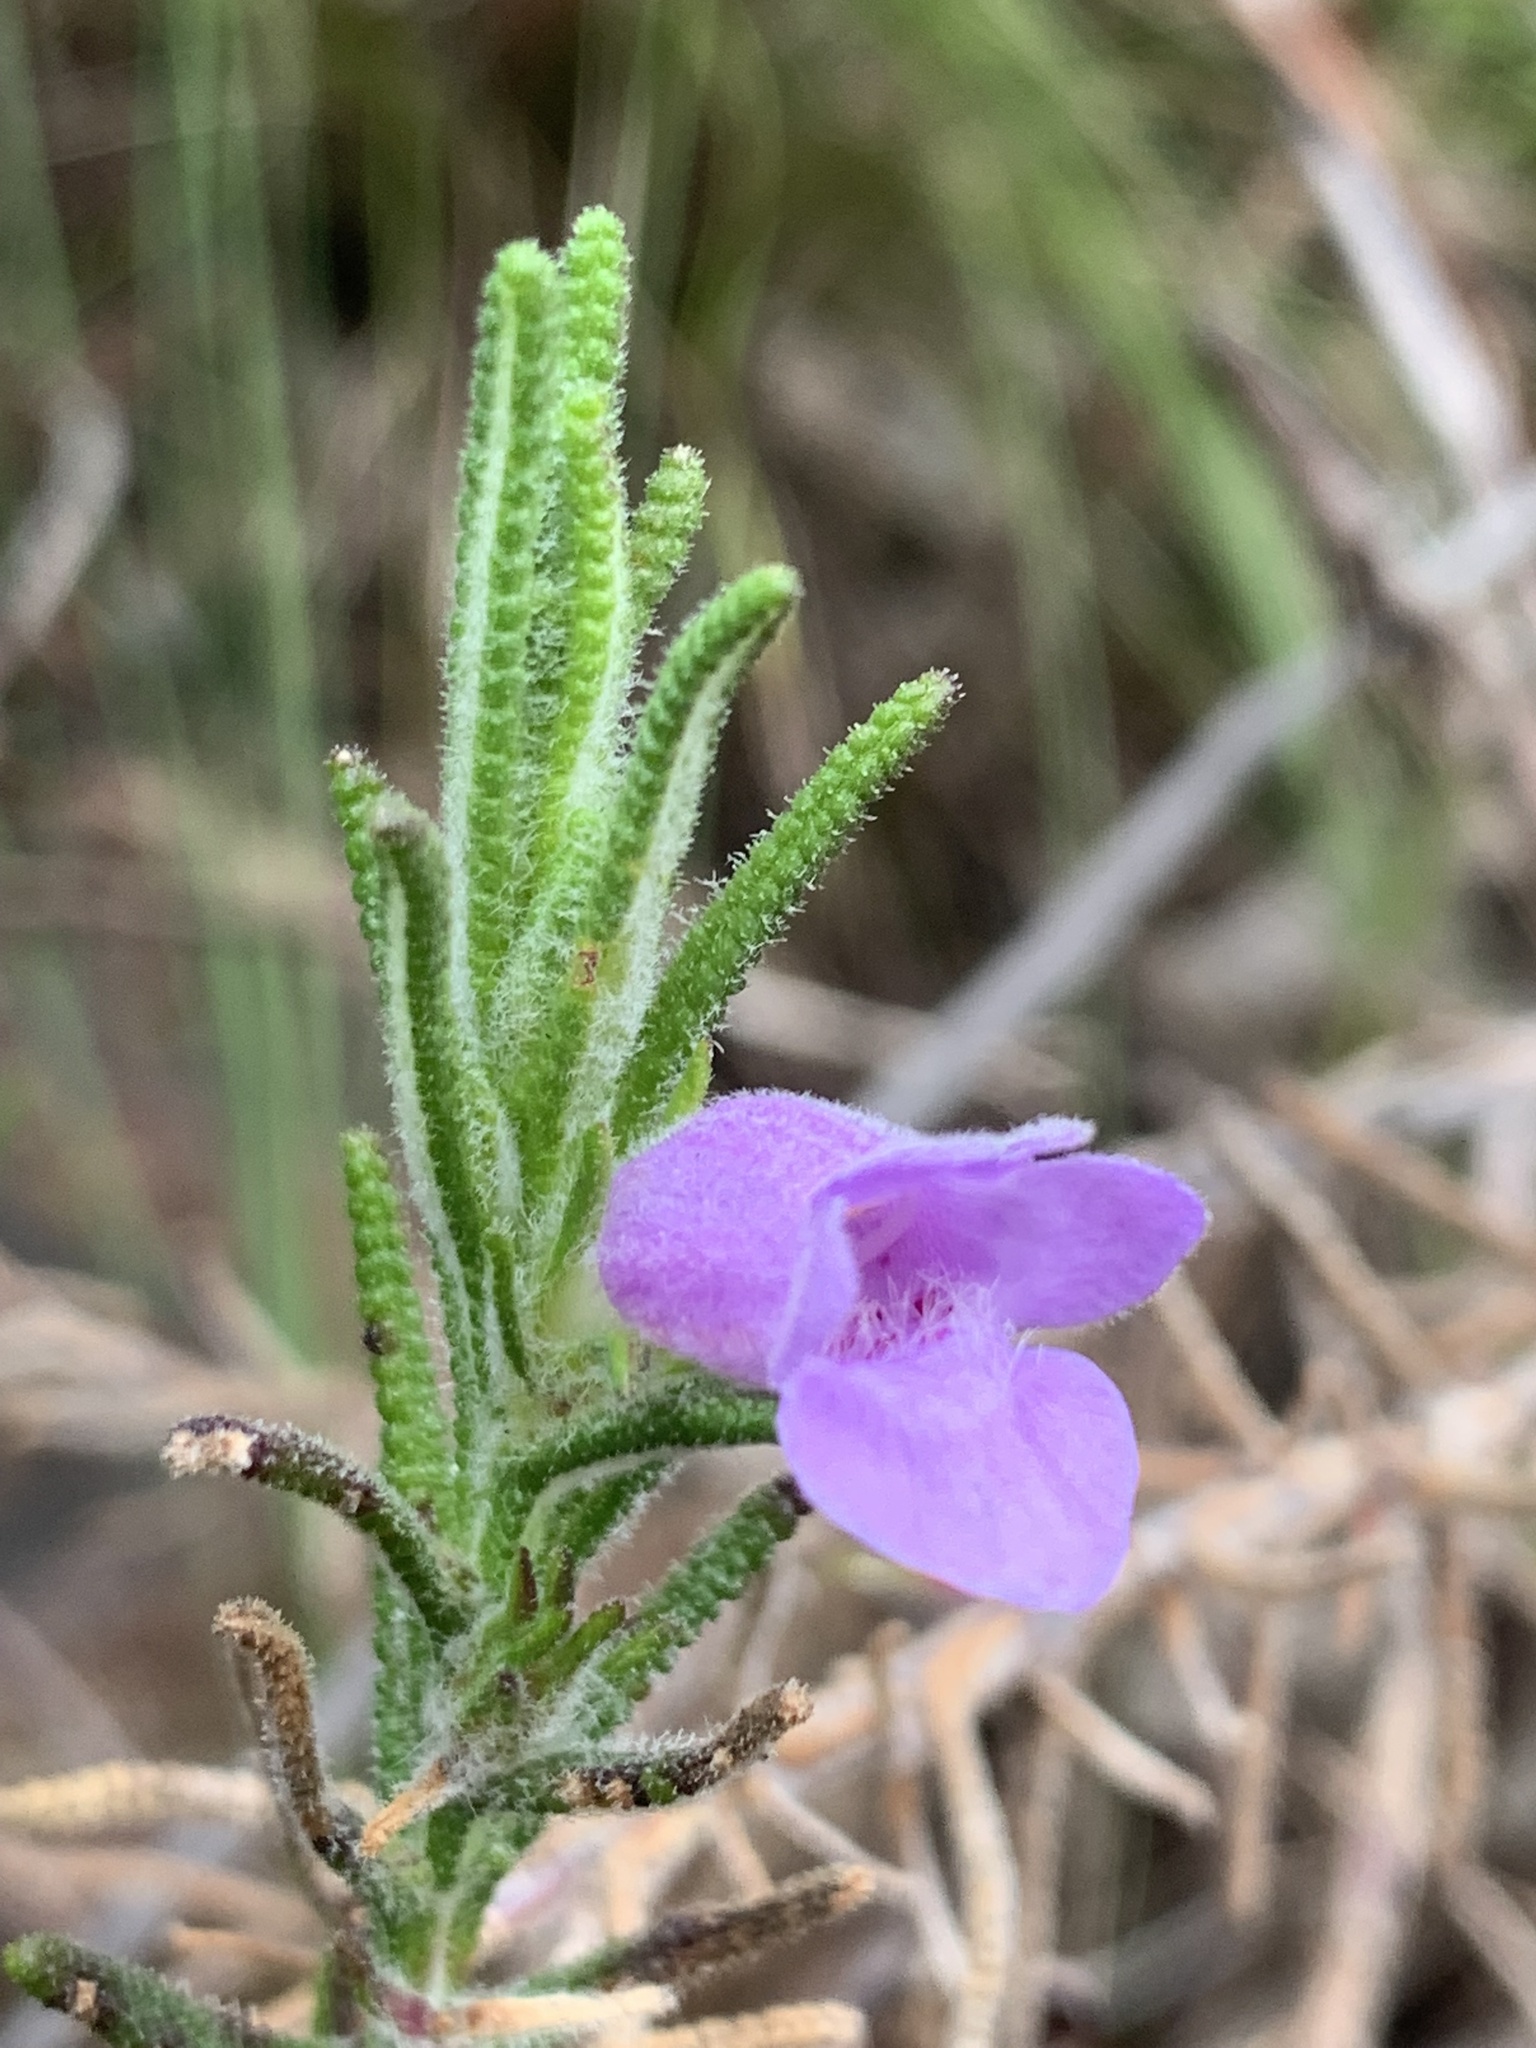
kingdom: Plantae
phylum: Tracheophyta
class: Magnoliopsida
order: Lamiales
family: Lamiaceae
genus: Chloanthes
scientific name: Chloanthes parviflora
